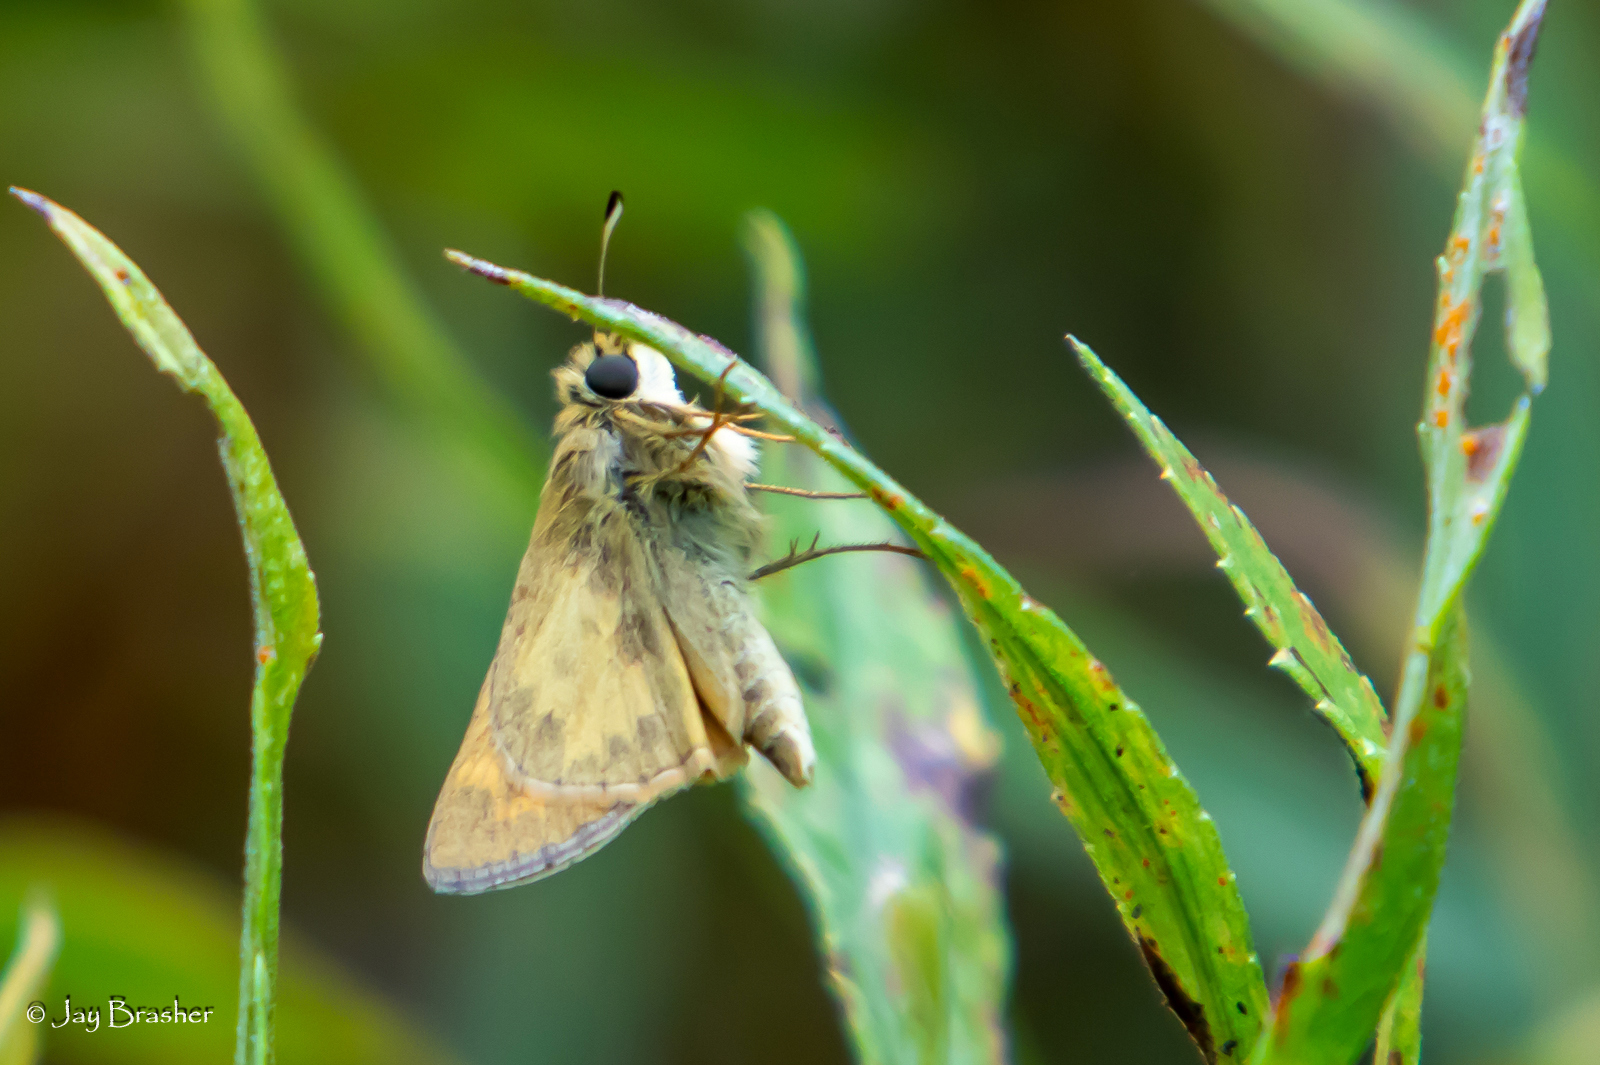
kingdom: Animalia
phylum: Arthropoda
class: Insecta
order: Lepidoptera
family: Hesperiidae
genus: Atalopedes
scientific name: Atalopedes
